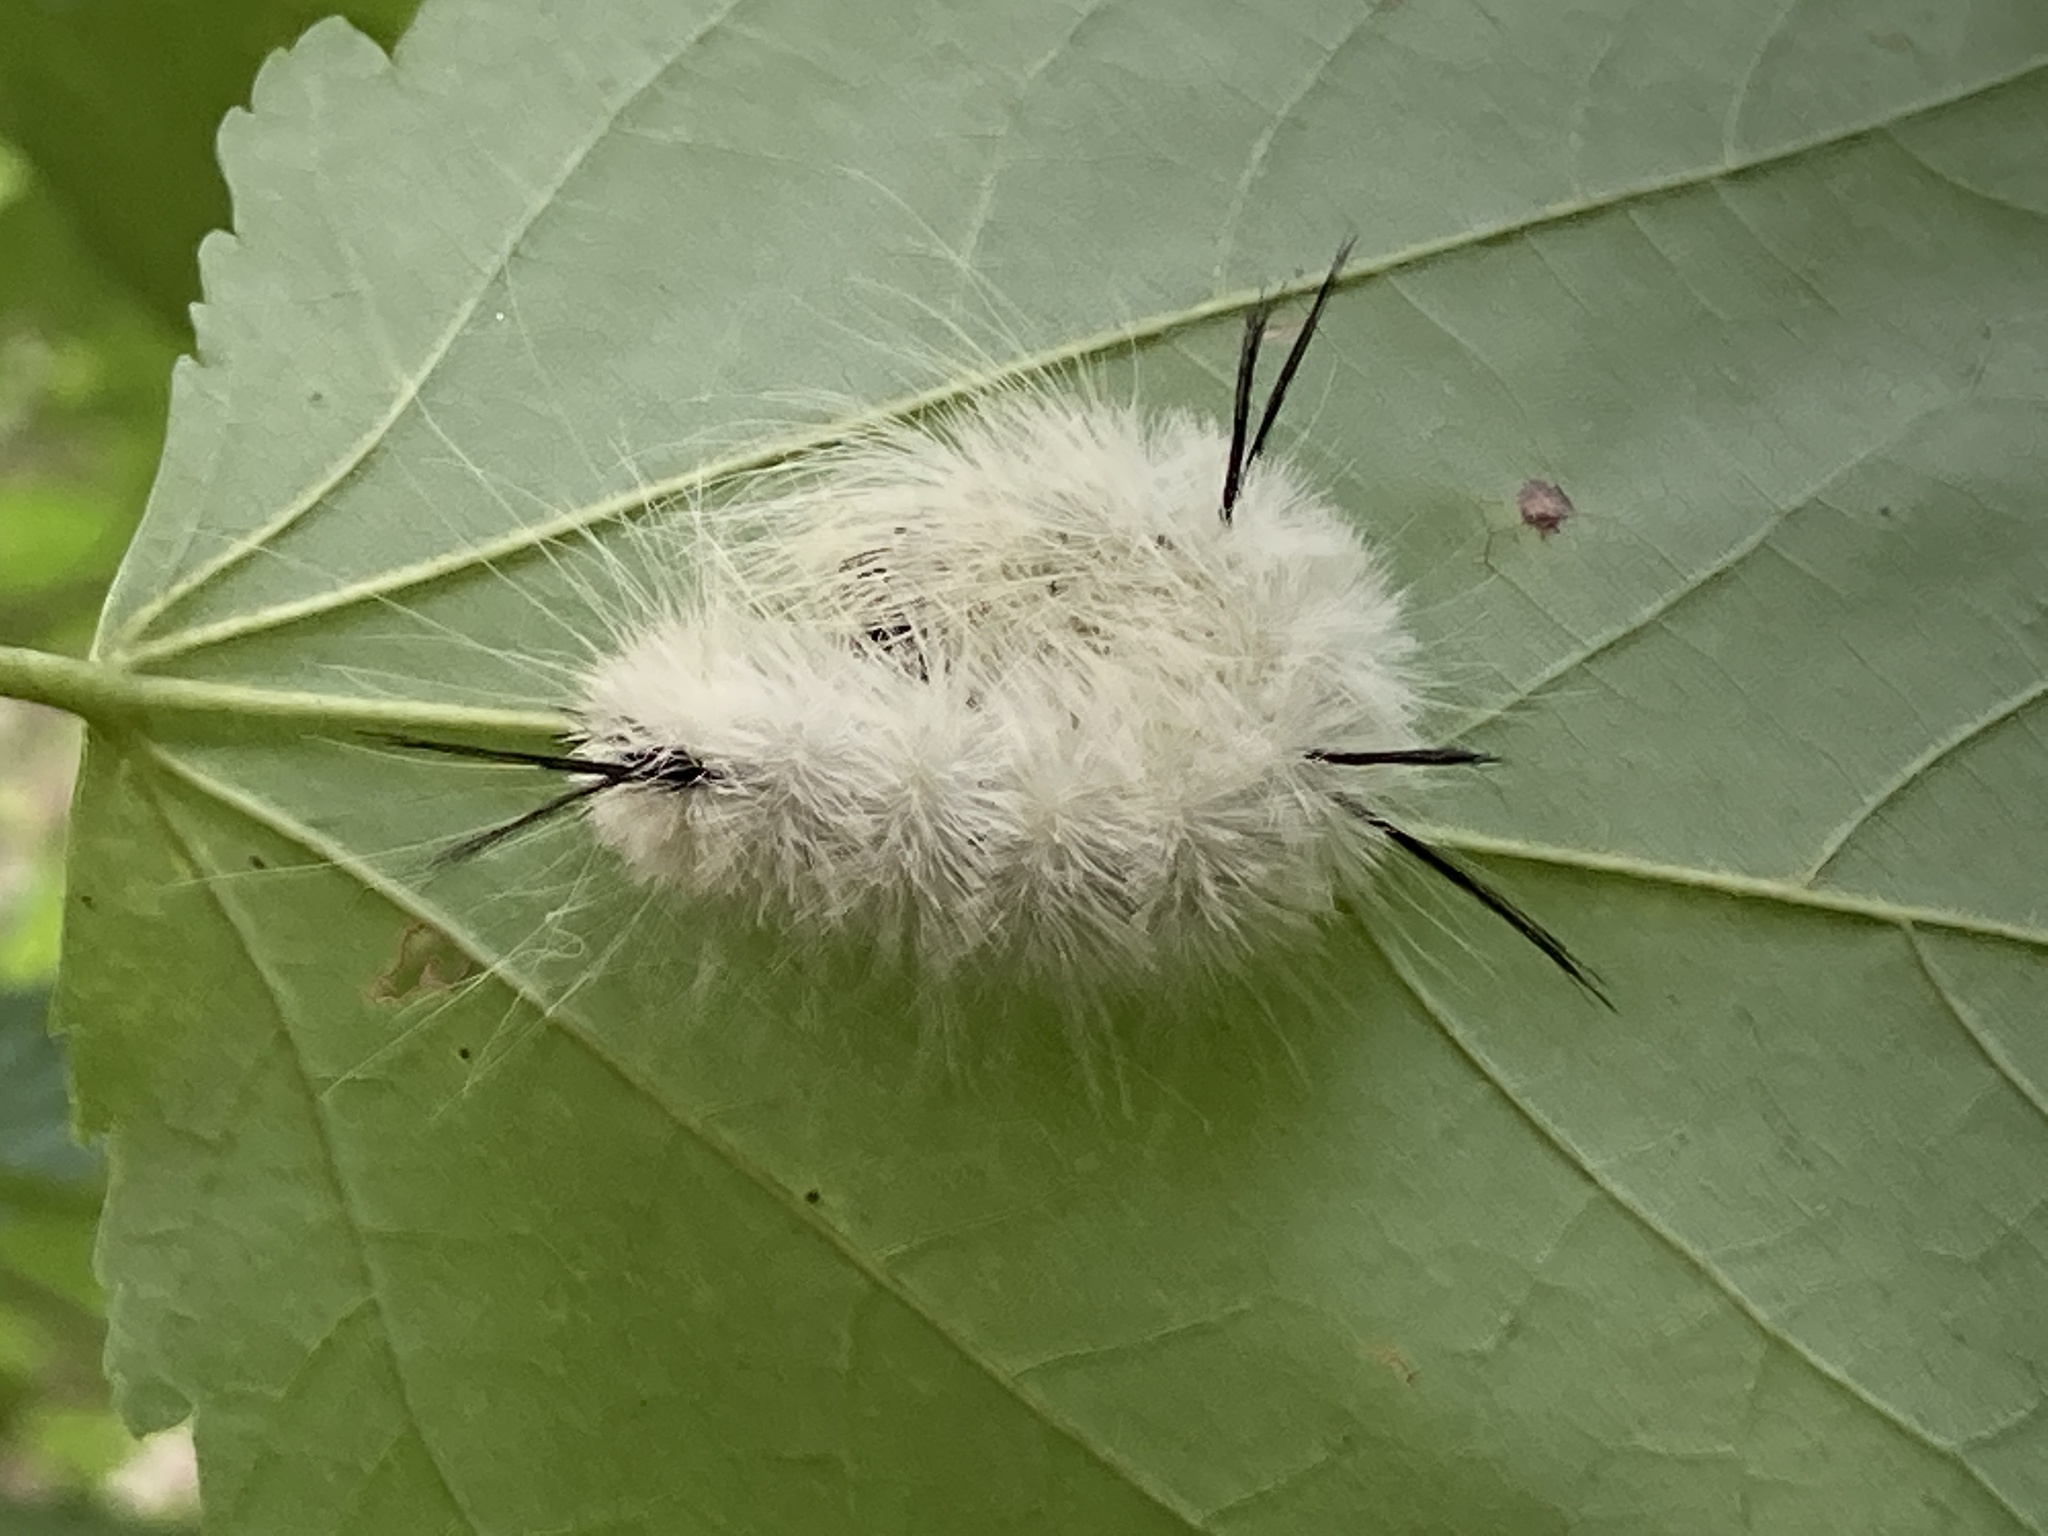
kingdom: Animalia
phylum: Arthropoda
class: Insecta
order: Lepidoptera
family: Noctuidae
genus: Acronicta
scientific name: Acronicta americana
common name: American dagger
